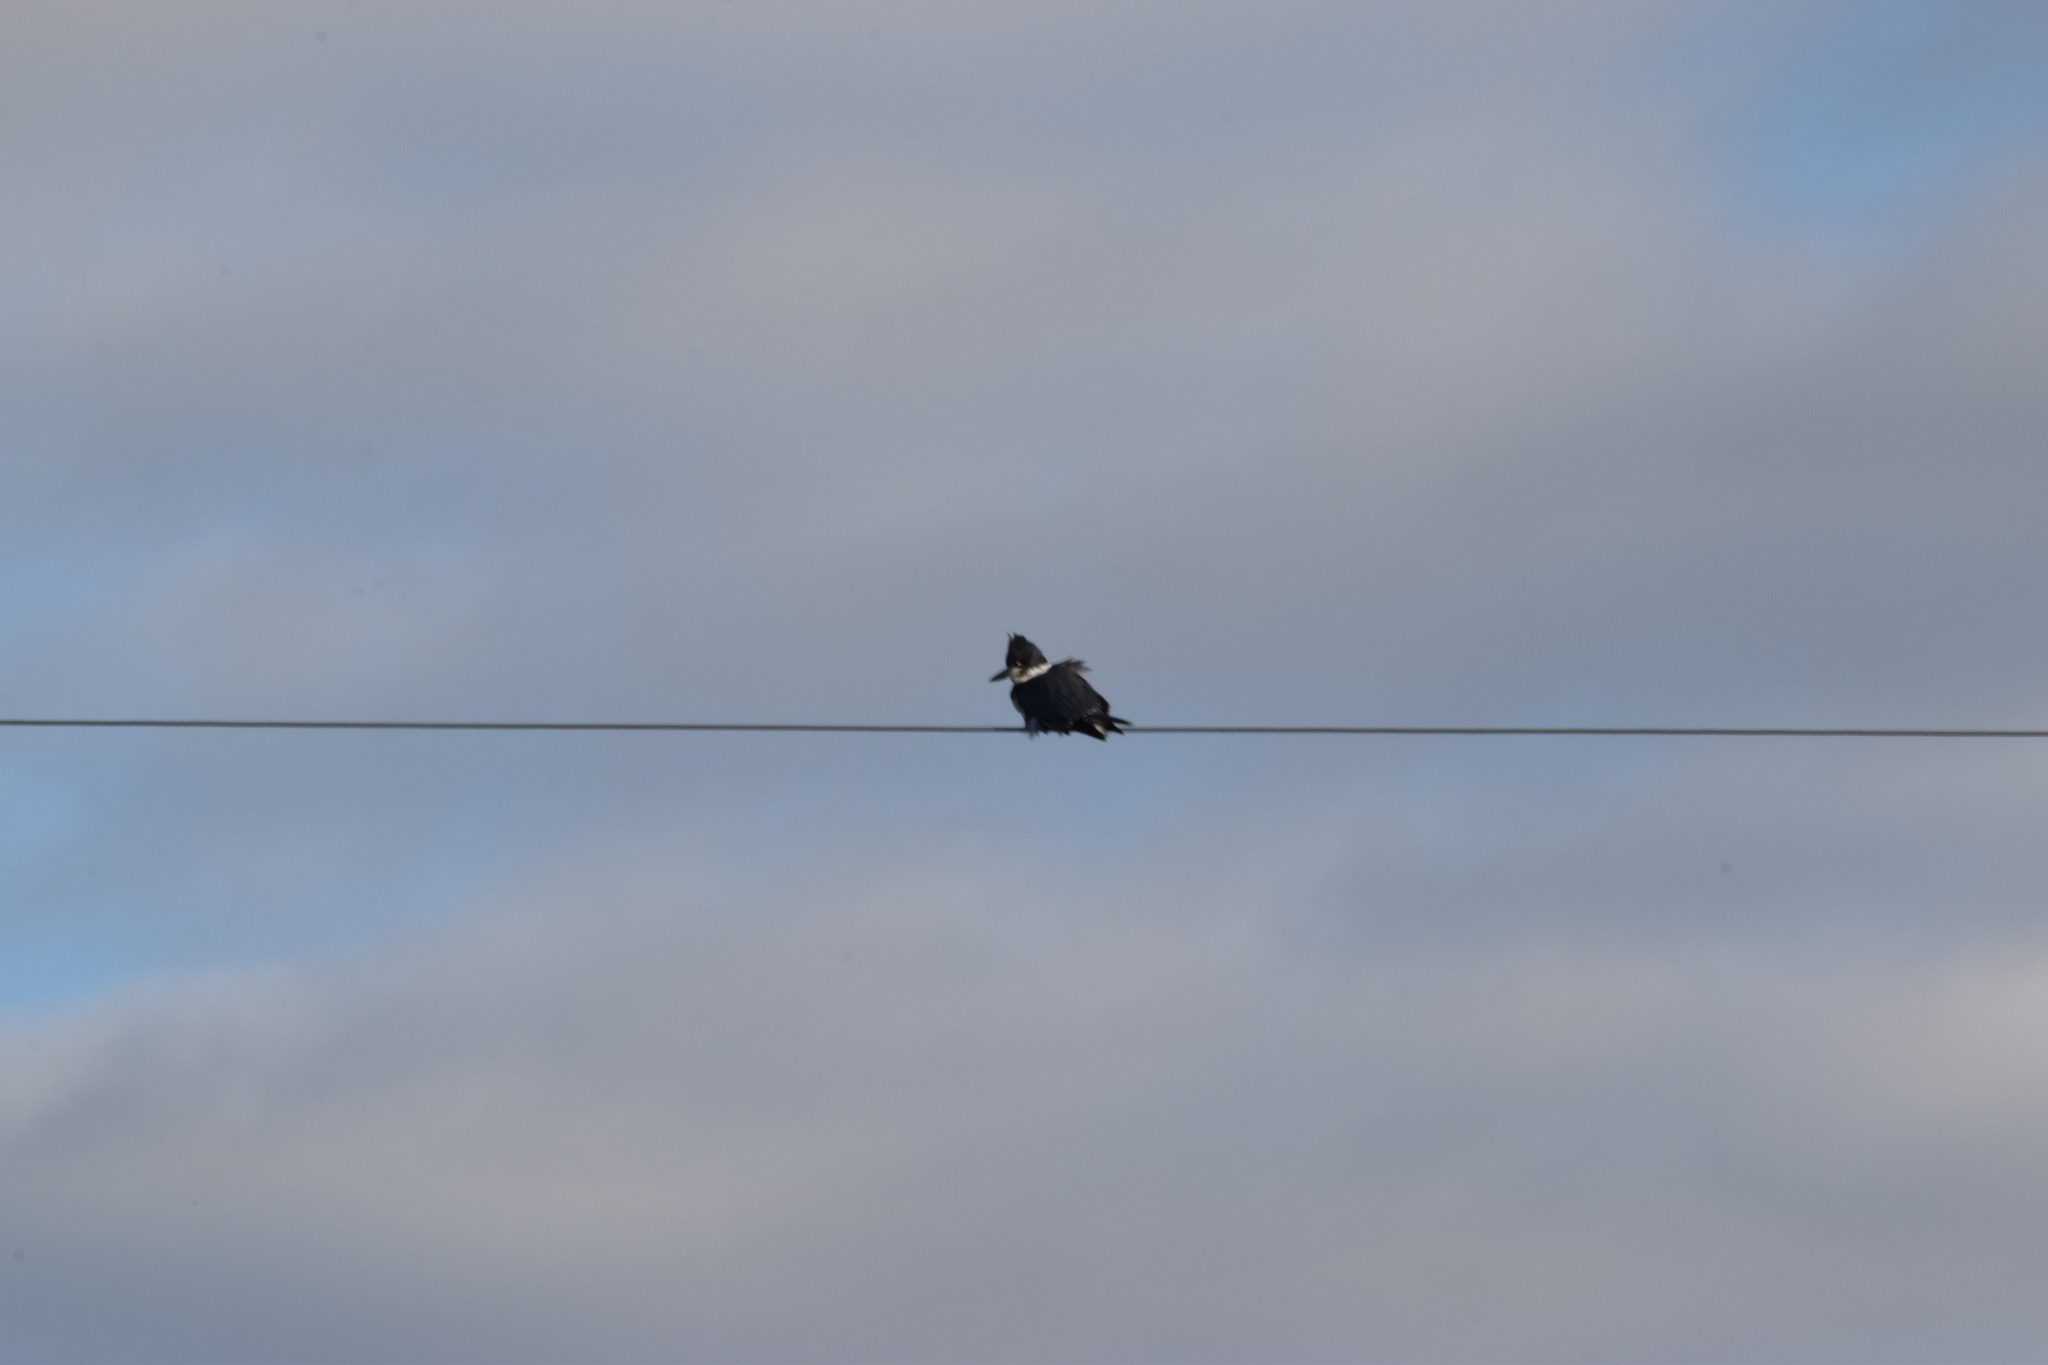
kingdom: Animalia
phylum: Chordata
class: Aves
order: Coraciiformes
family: Alcedinidae
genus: Megaceryle
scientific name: Megaceryle alcyon
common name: Belted kingfisher
